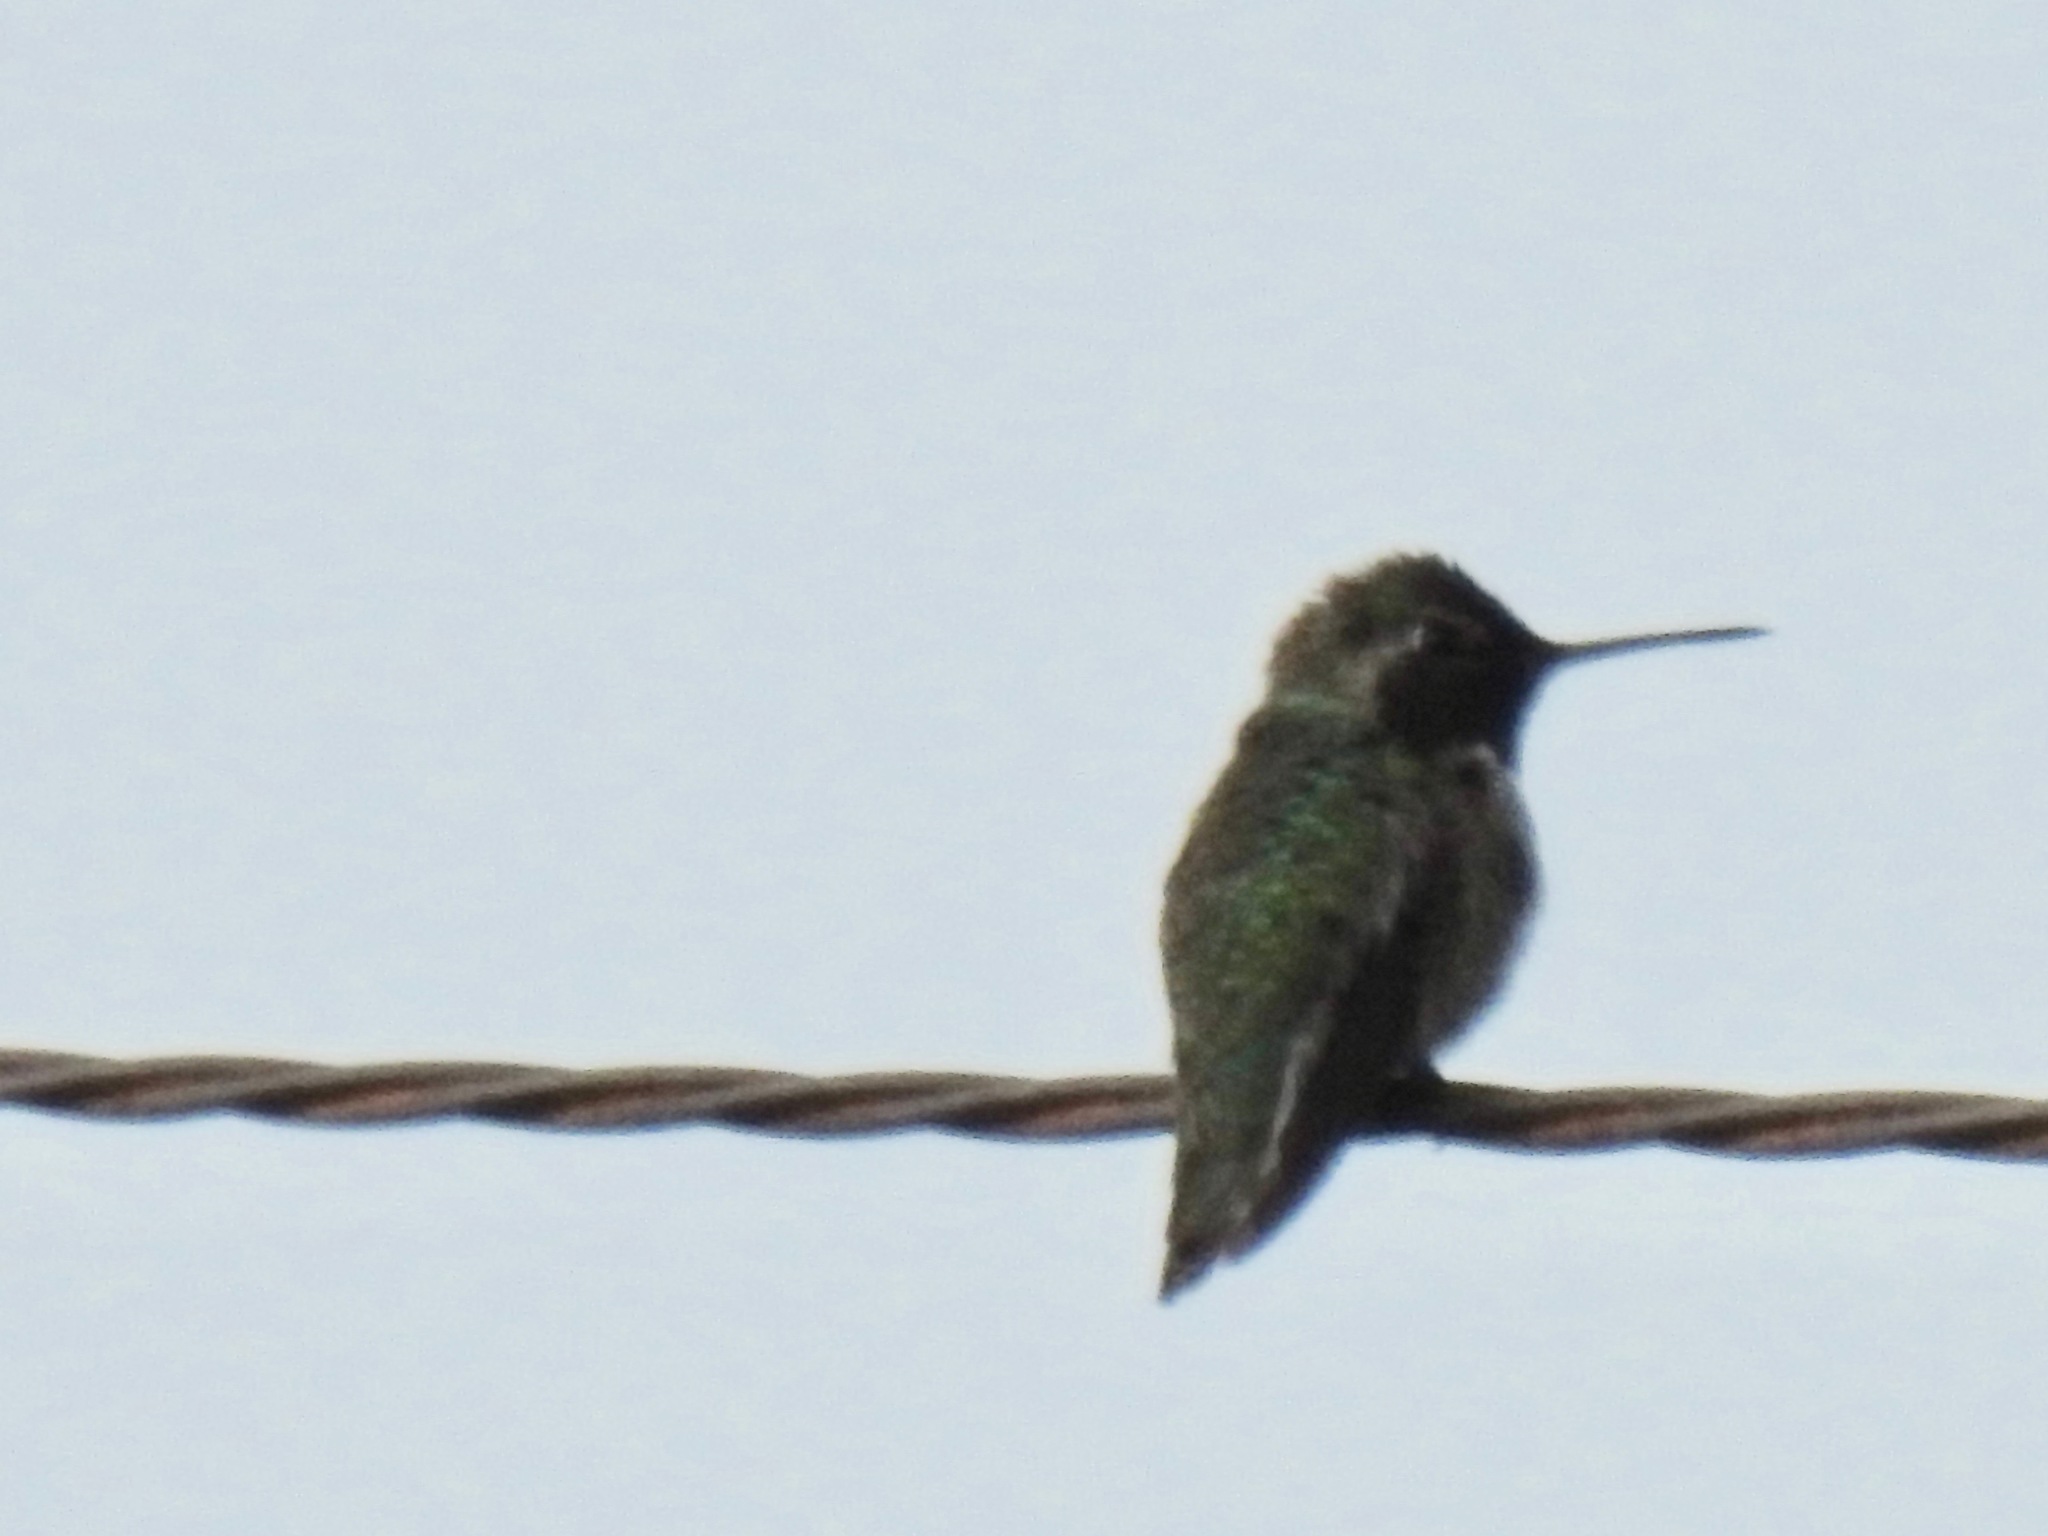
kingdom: Animalia
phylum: Chordata
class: Aves
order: Apodiformes
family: Trochilidae
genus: Calypte
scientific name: Calypte anna
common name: Anna's hummingbird
